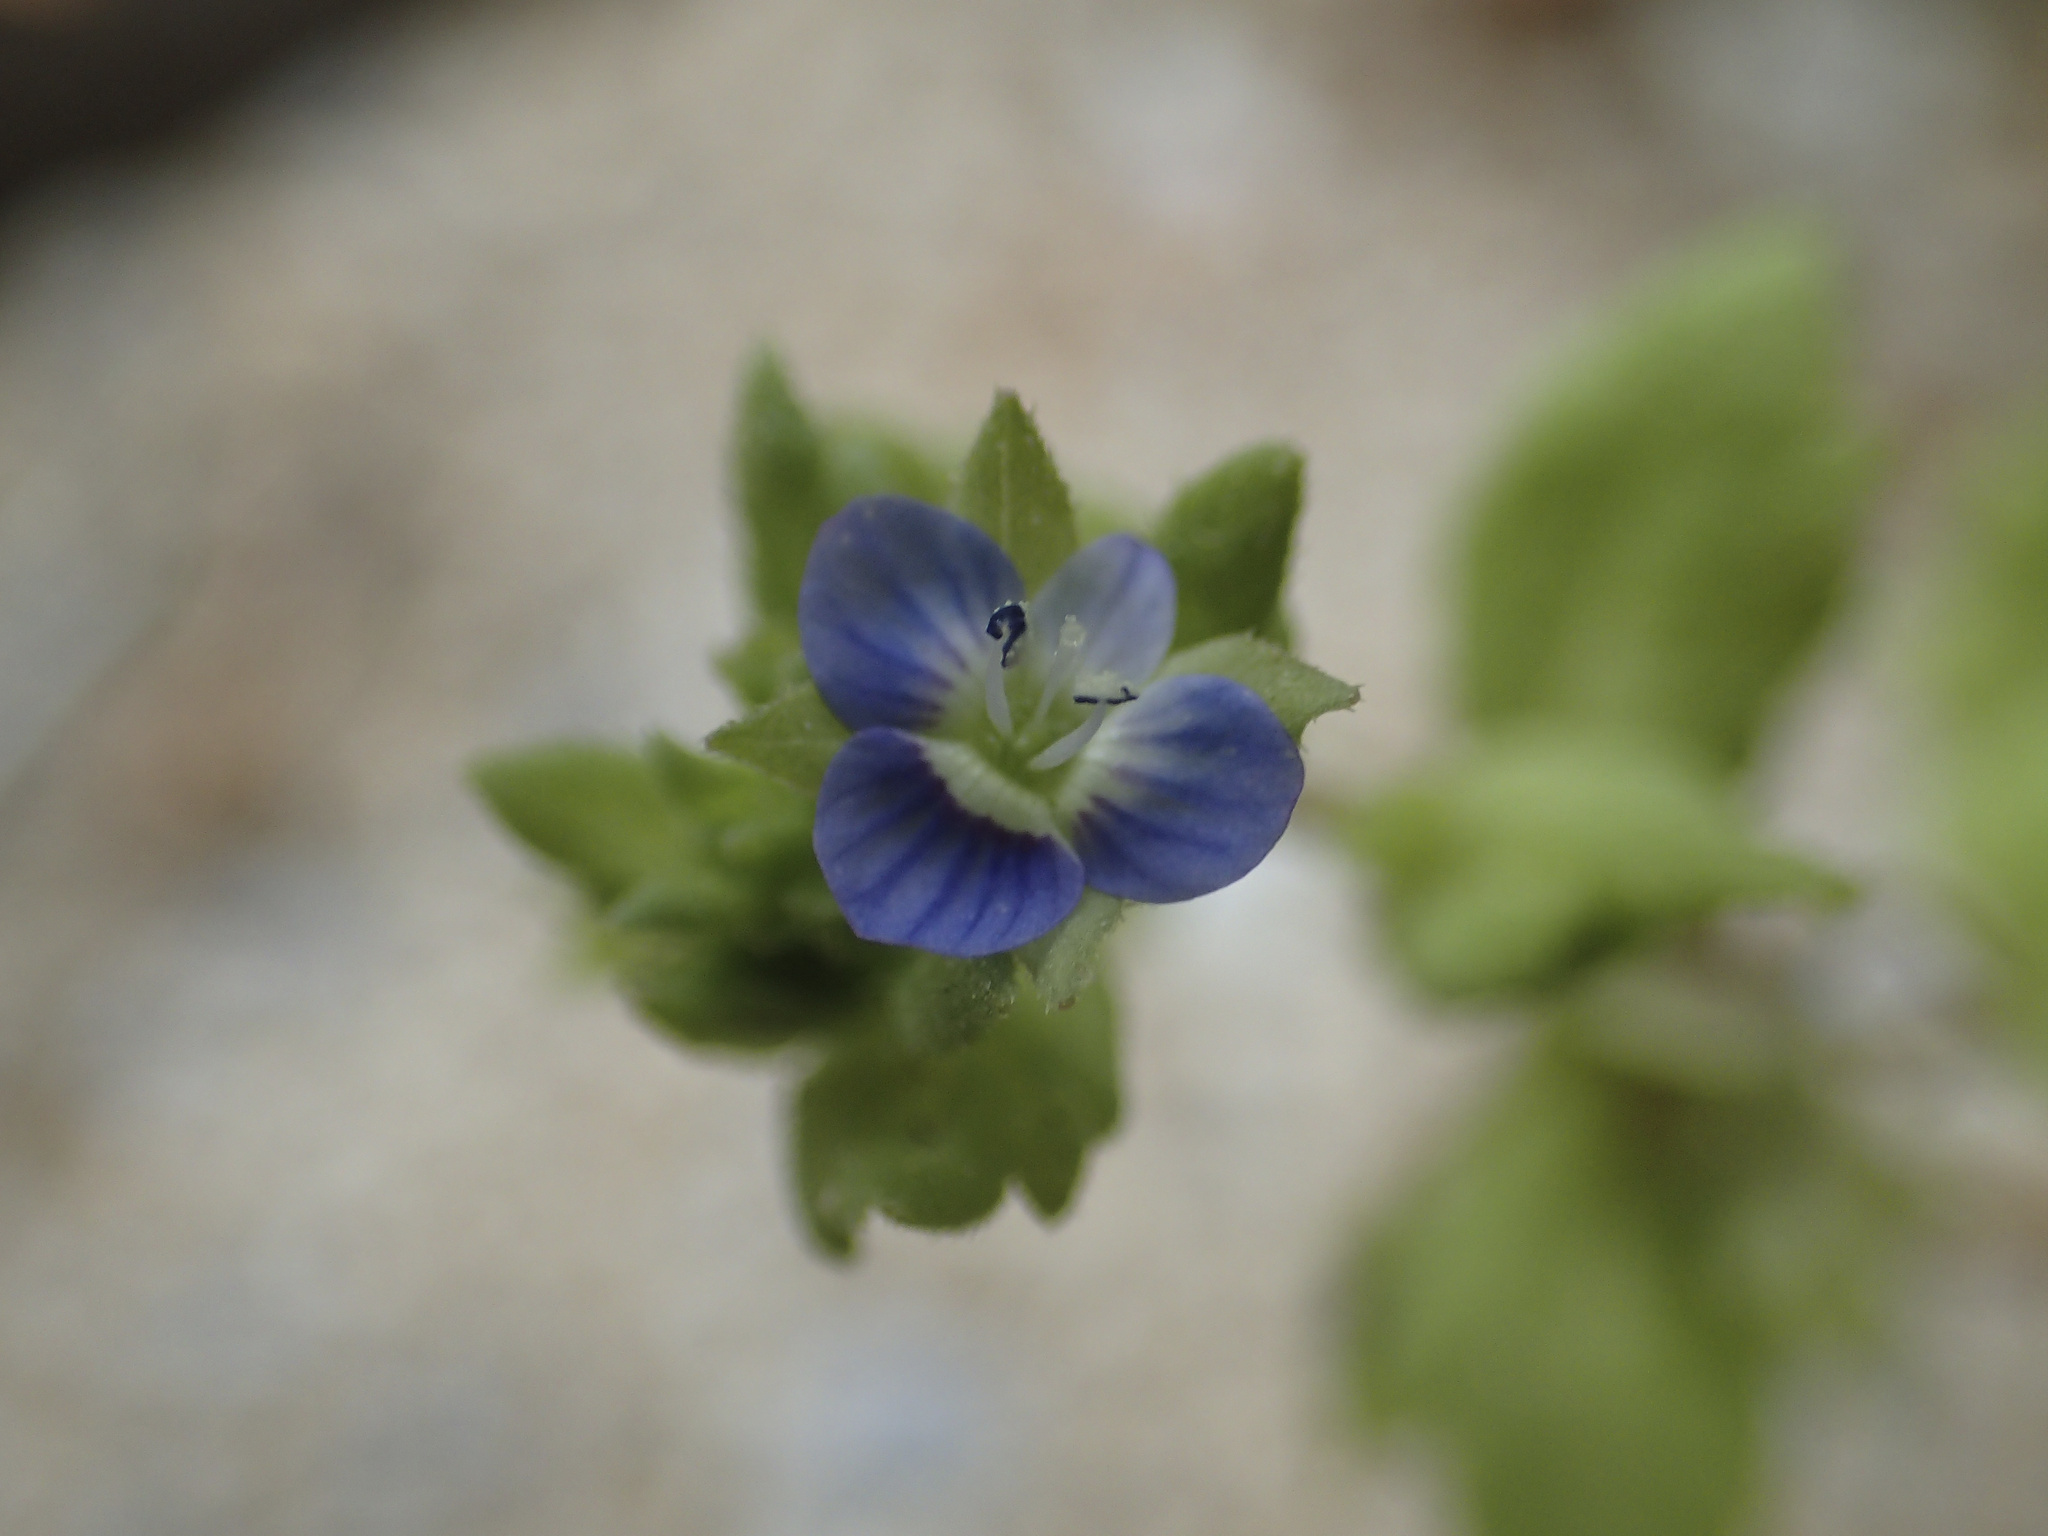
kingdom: Plantae
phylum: Tracheophyta
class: Magnoliopsida
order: Lamiales
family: Plantaginaceae
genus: Veronica
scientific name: Veronica polita
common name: Grey field-speedwell
